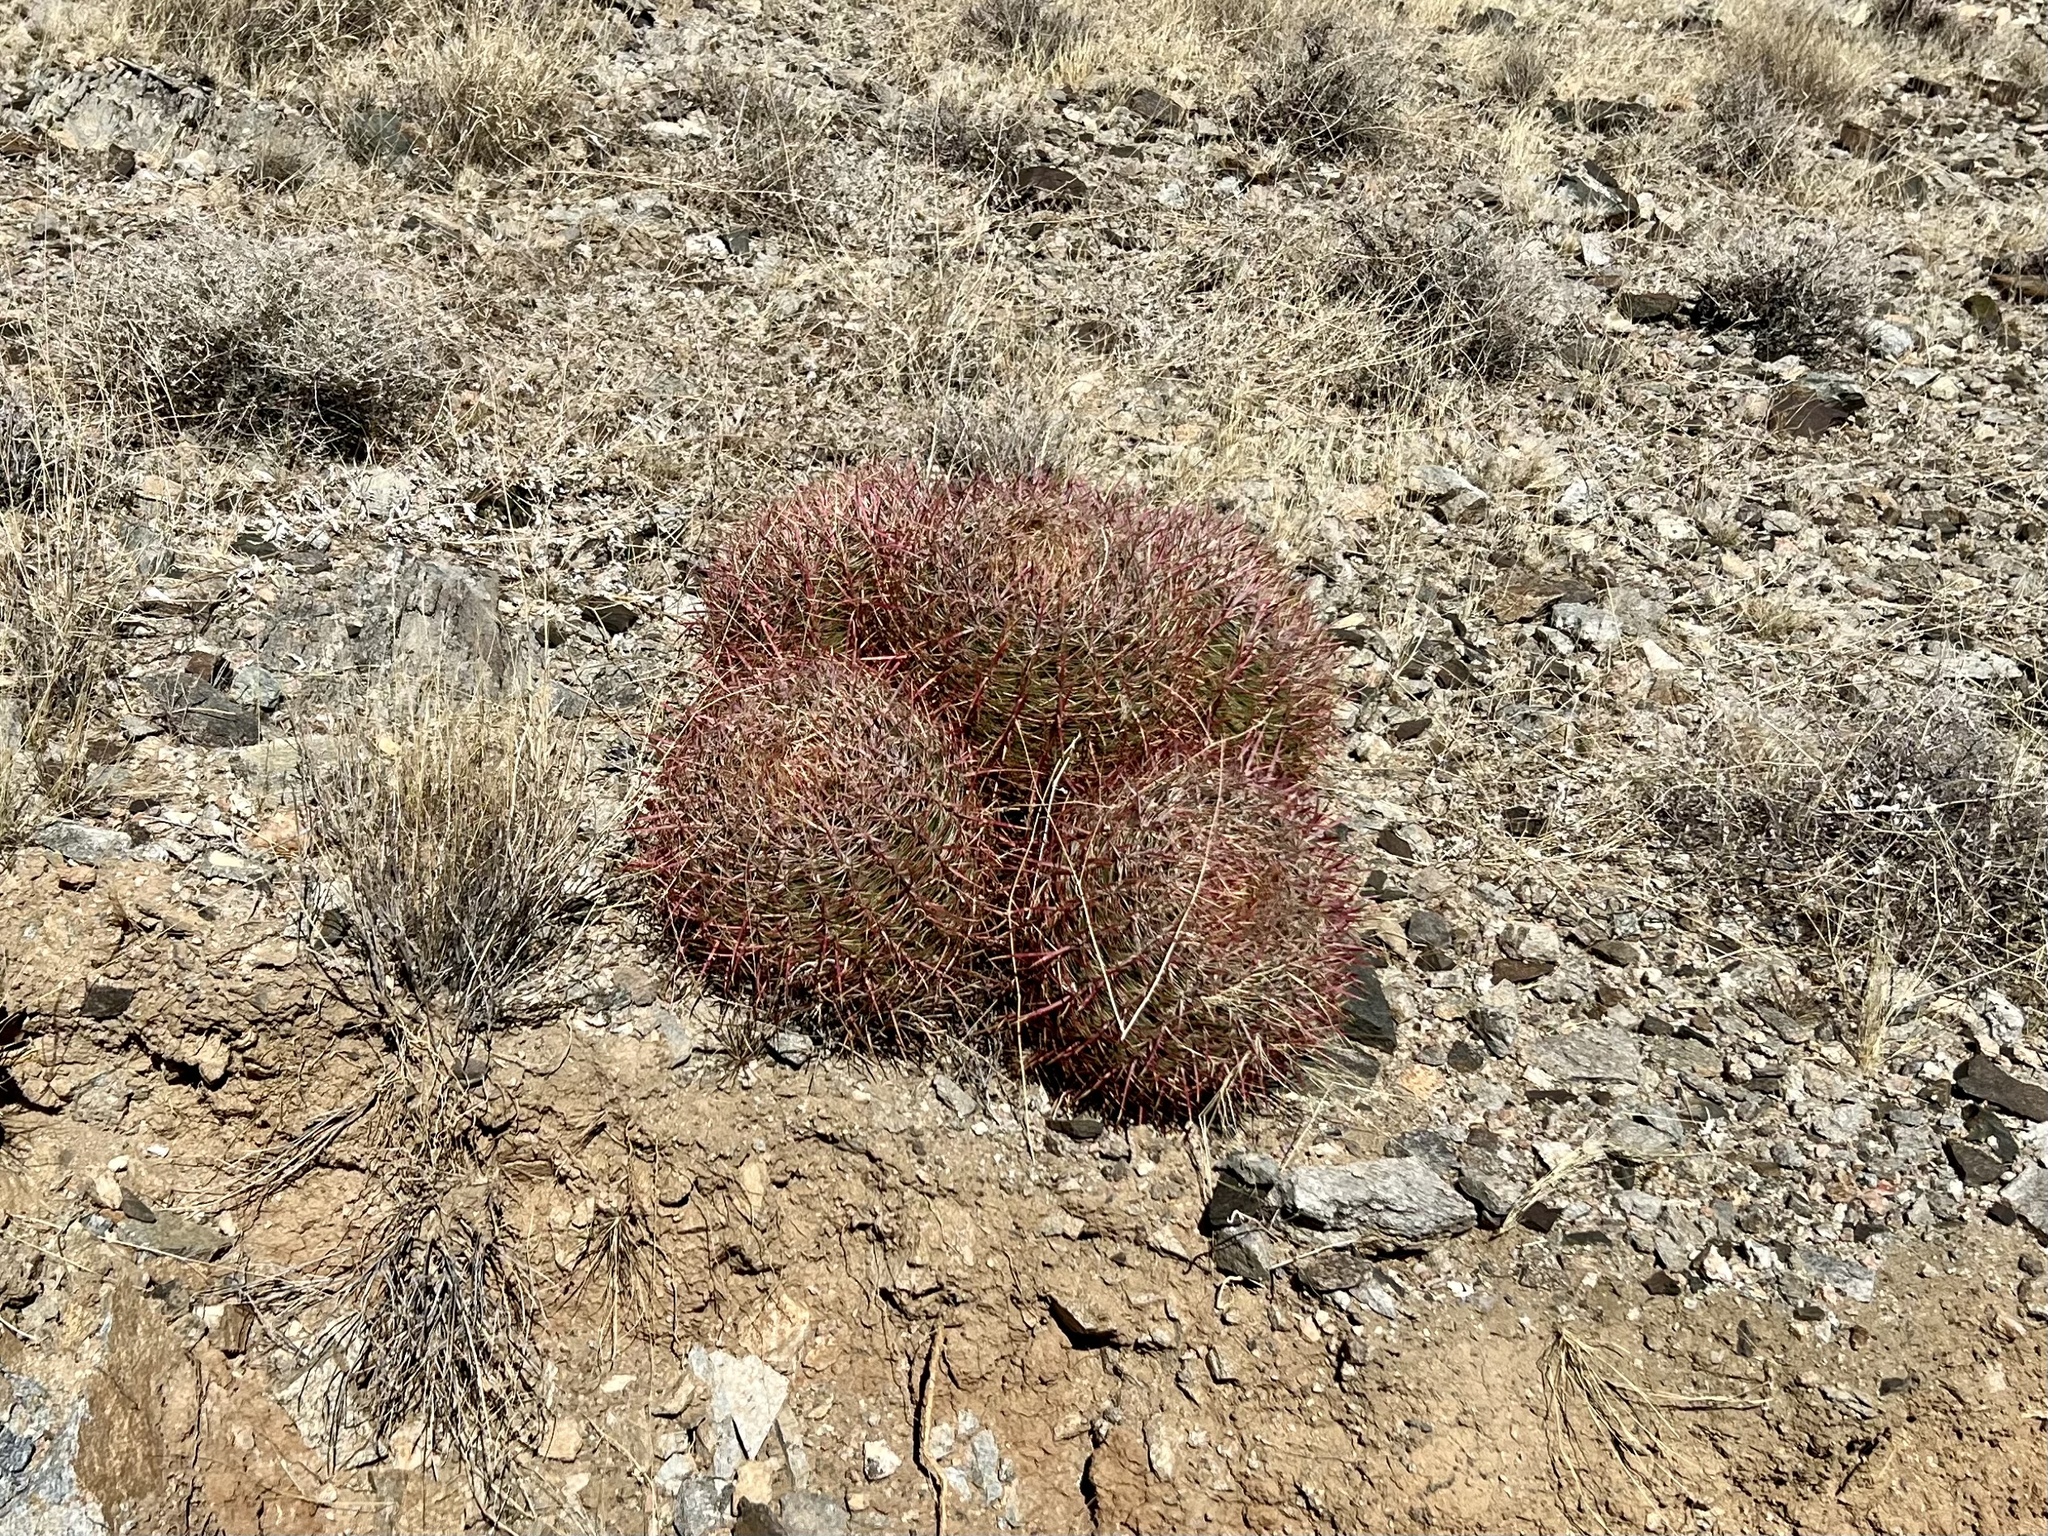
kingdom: Plantae
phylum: Tracheophyta
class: Magnoliopsida
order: Caryophyllales
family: Cactaceae
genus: Ferocactus
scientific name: Ferocactus cylindraceus
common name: California barrel cactus
